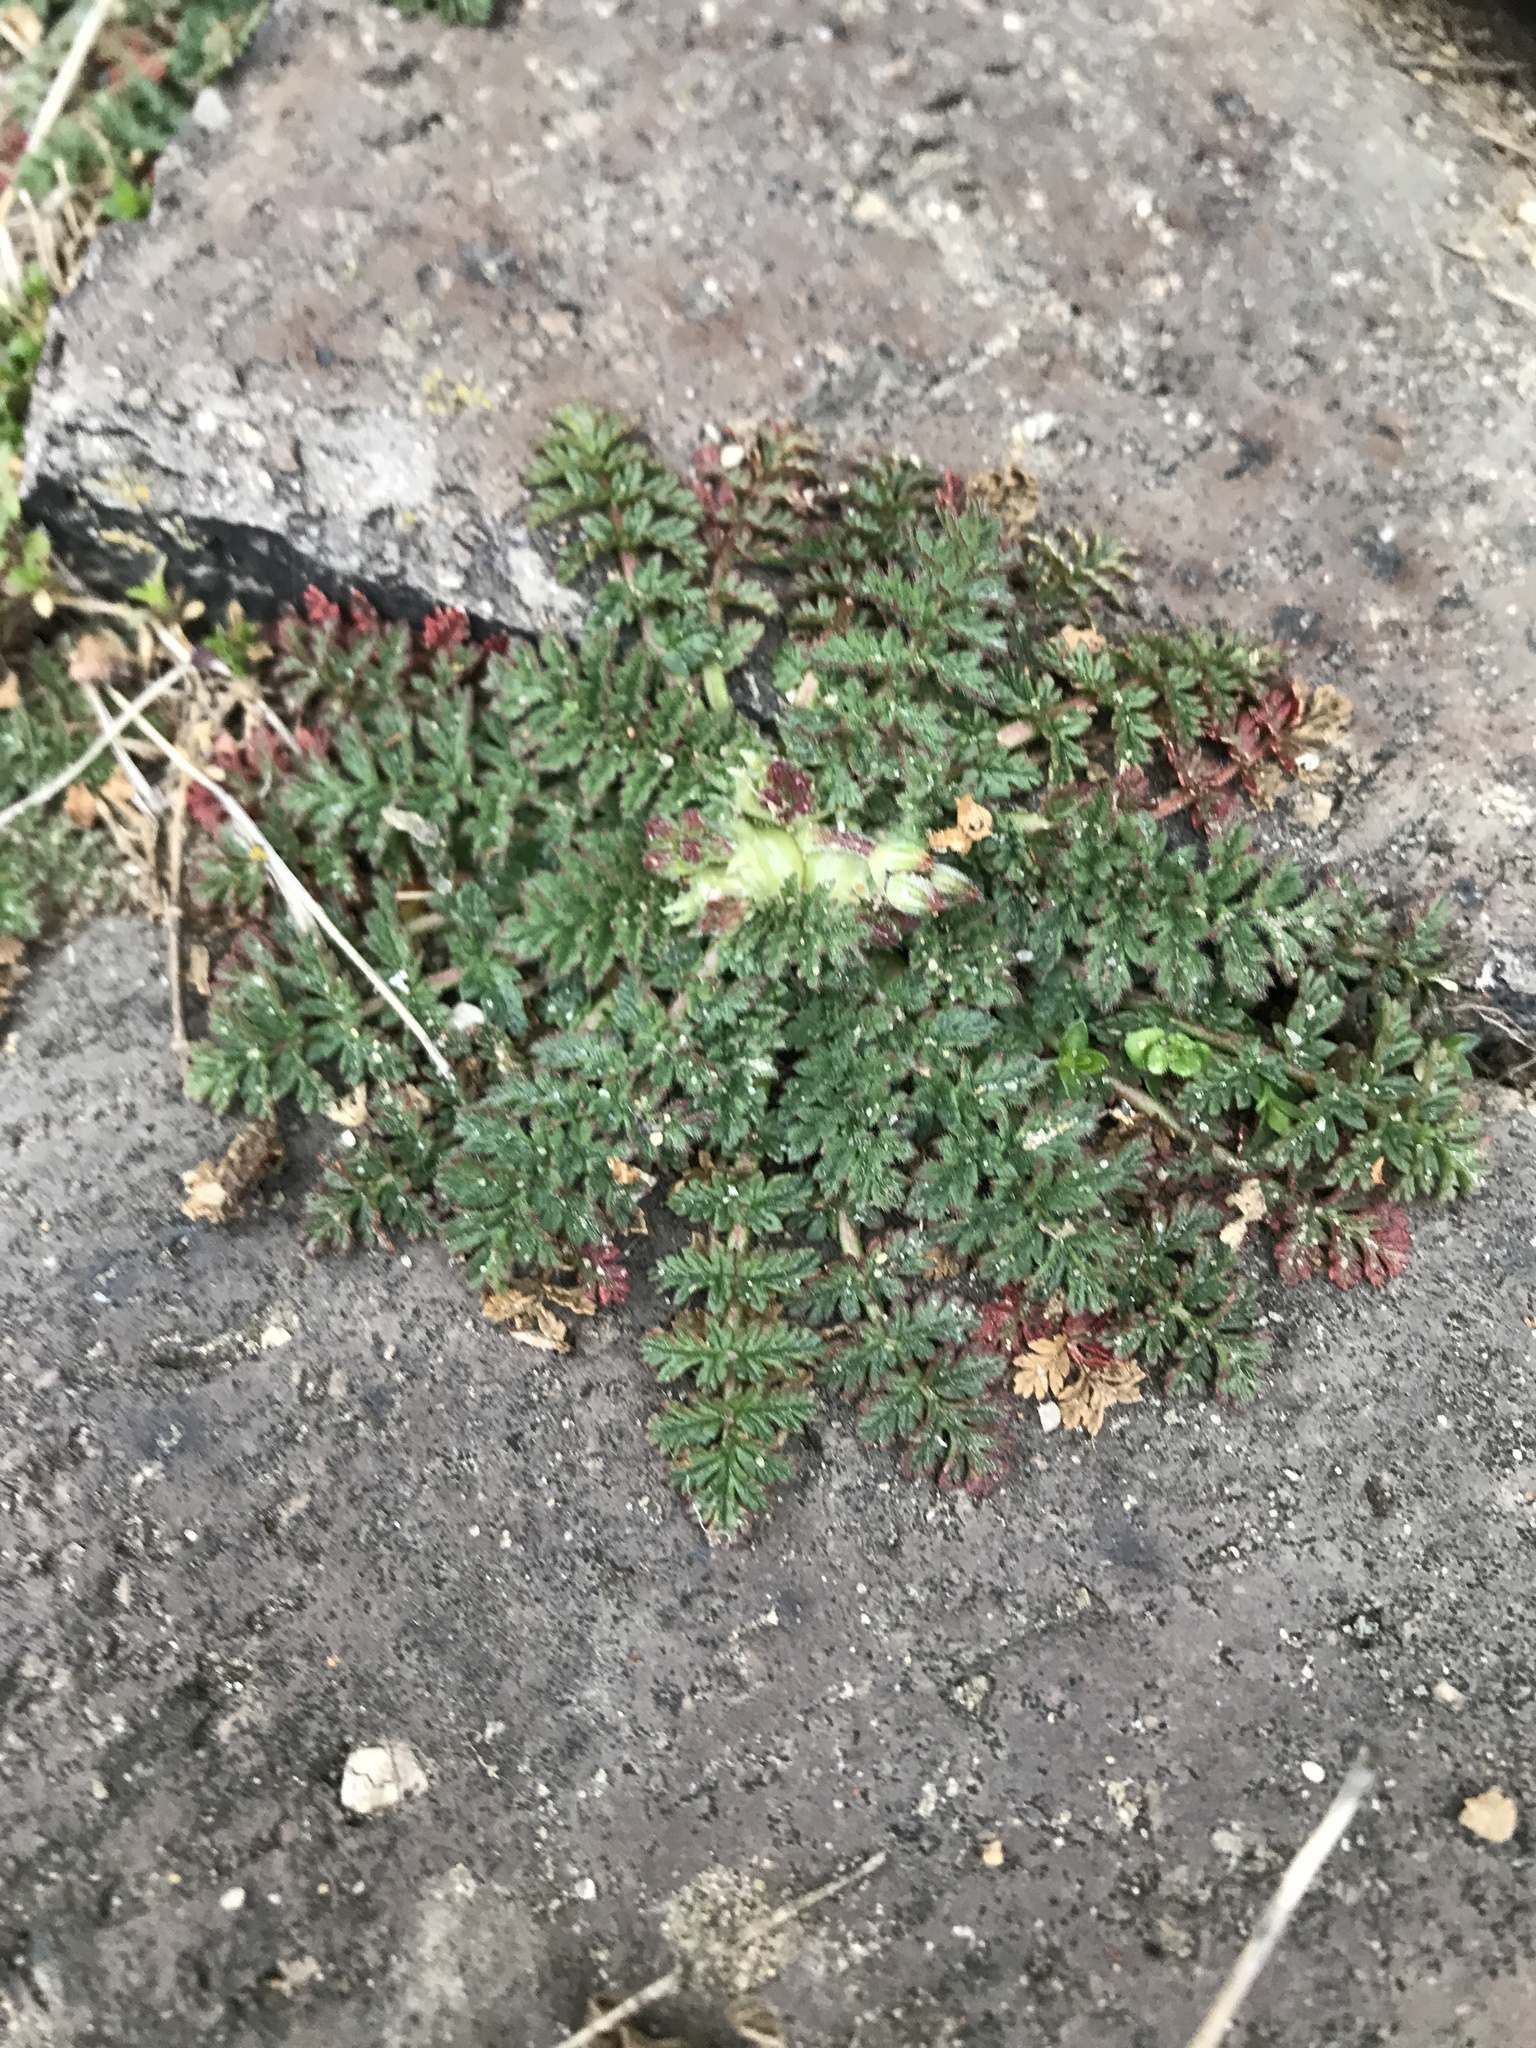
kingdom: Plantae
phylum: Tracheophyta
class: Magnoliopsida
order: Geraniales
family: Geraniaceae
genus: Erodium
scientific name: Erodium cicutarium
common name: Common stork's-bill
